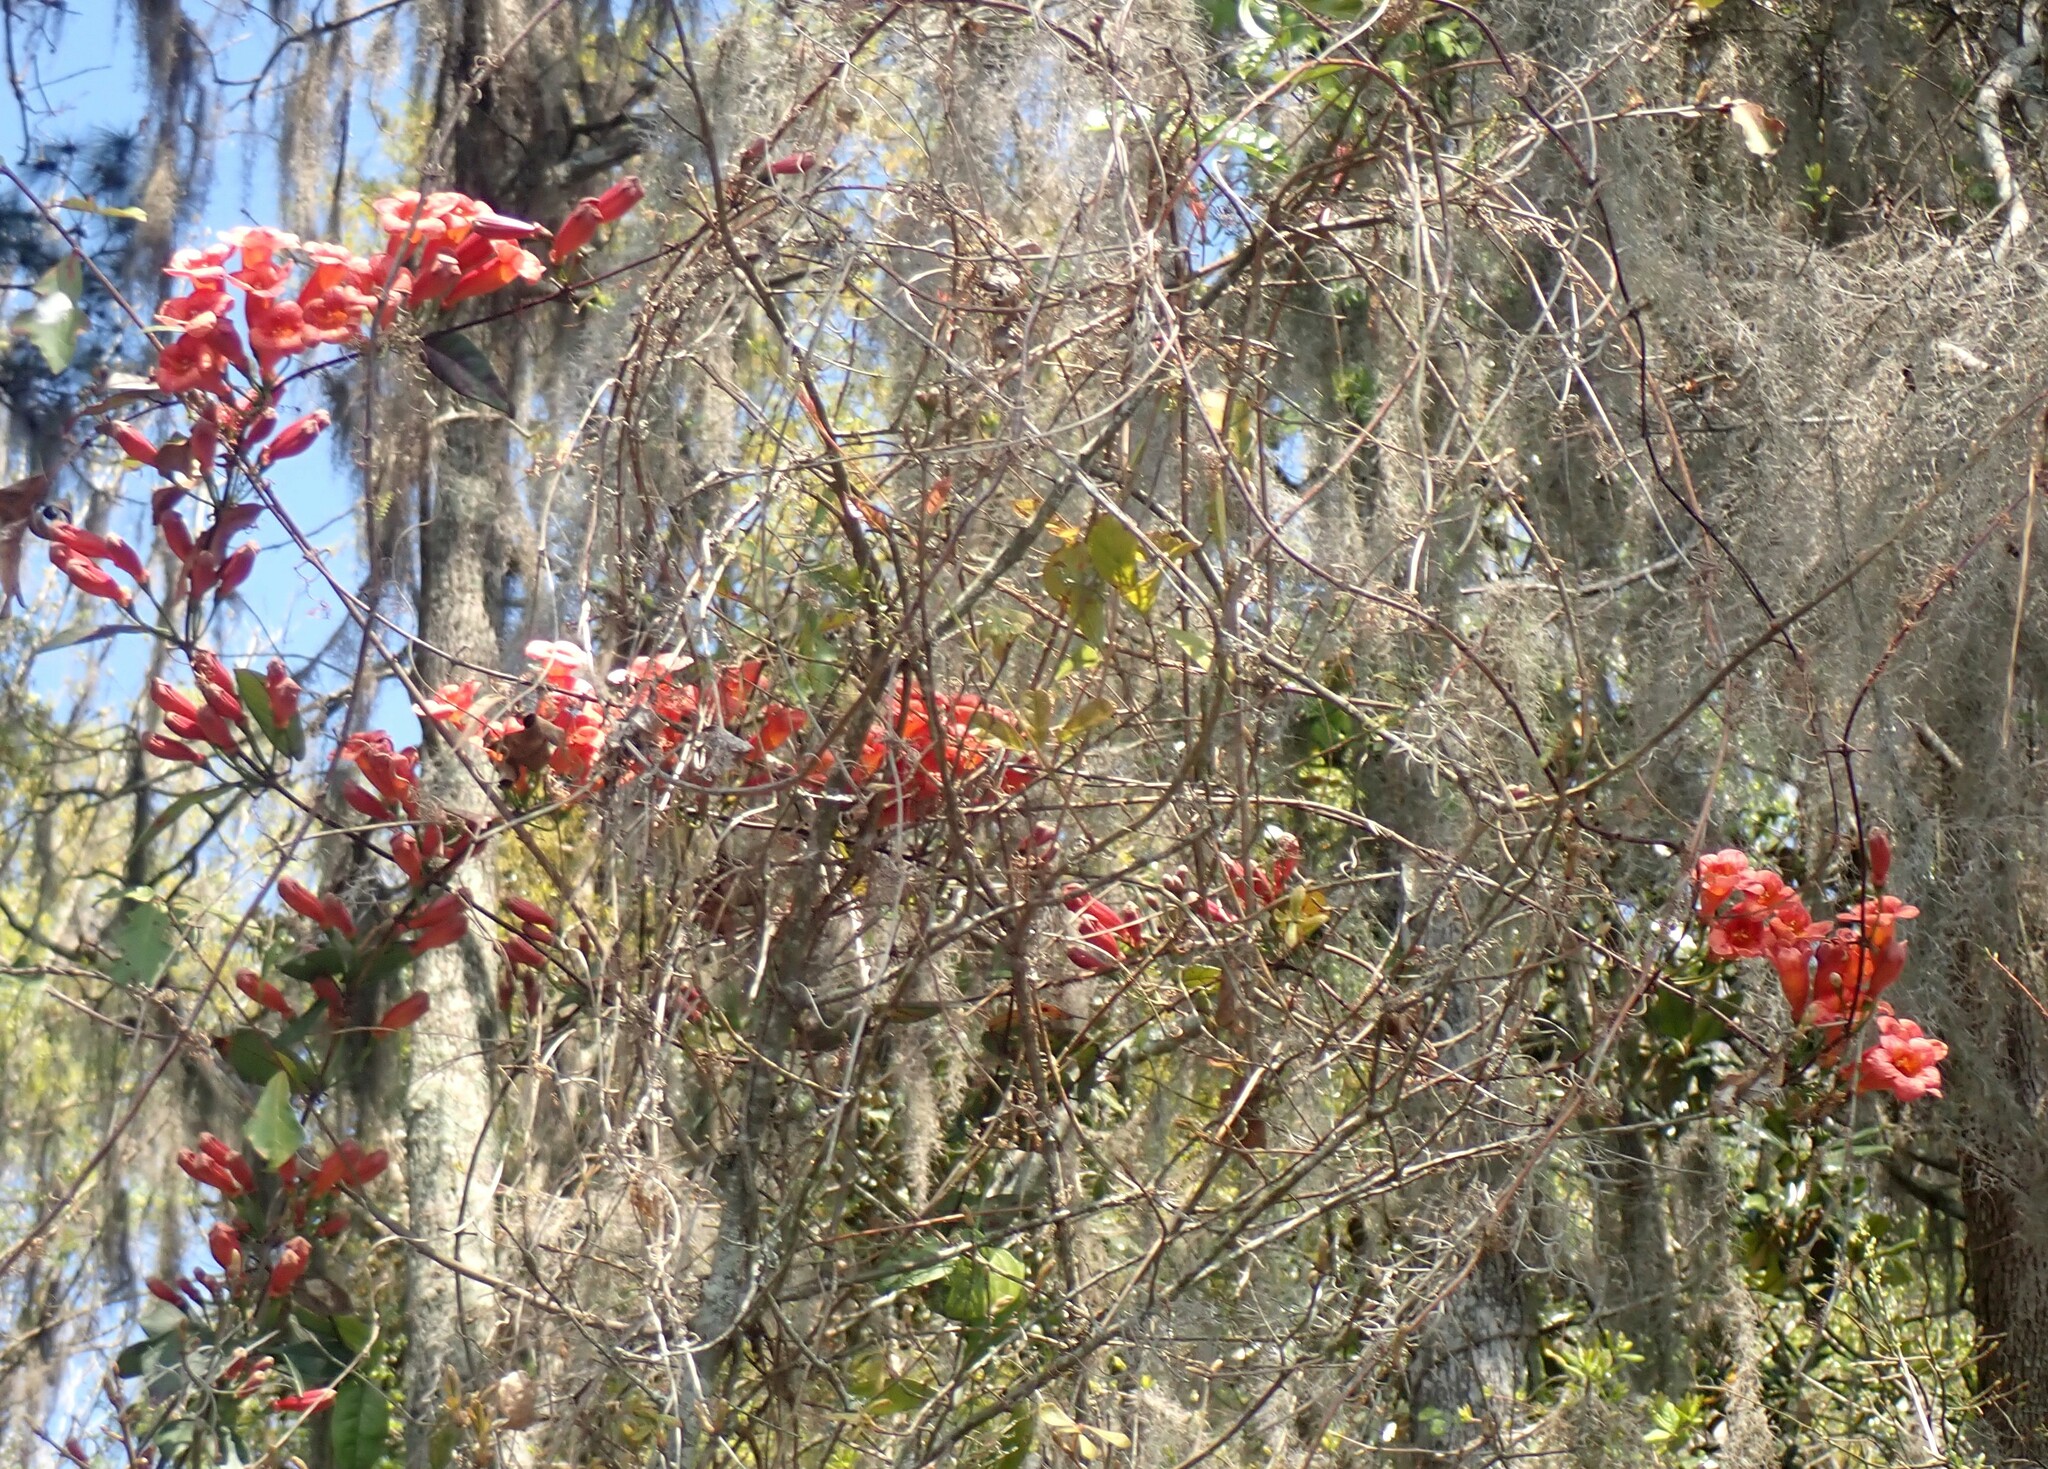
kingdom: Plantae
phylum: Tracheophyta
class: Magnoliopsida
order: Lamiales
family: Bignoniaceae
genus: Bignonia
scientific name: Bignonia capreolata
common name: Crossvine
